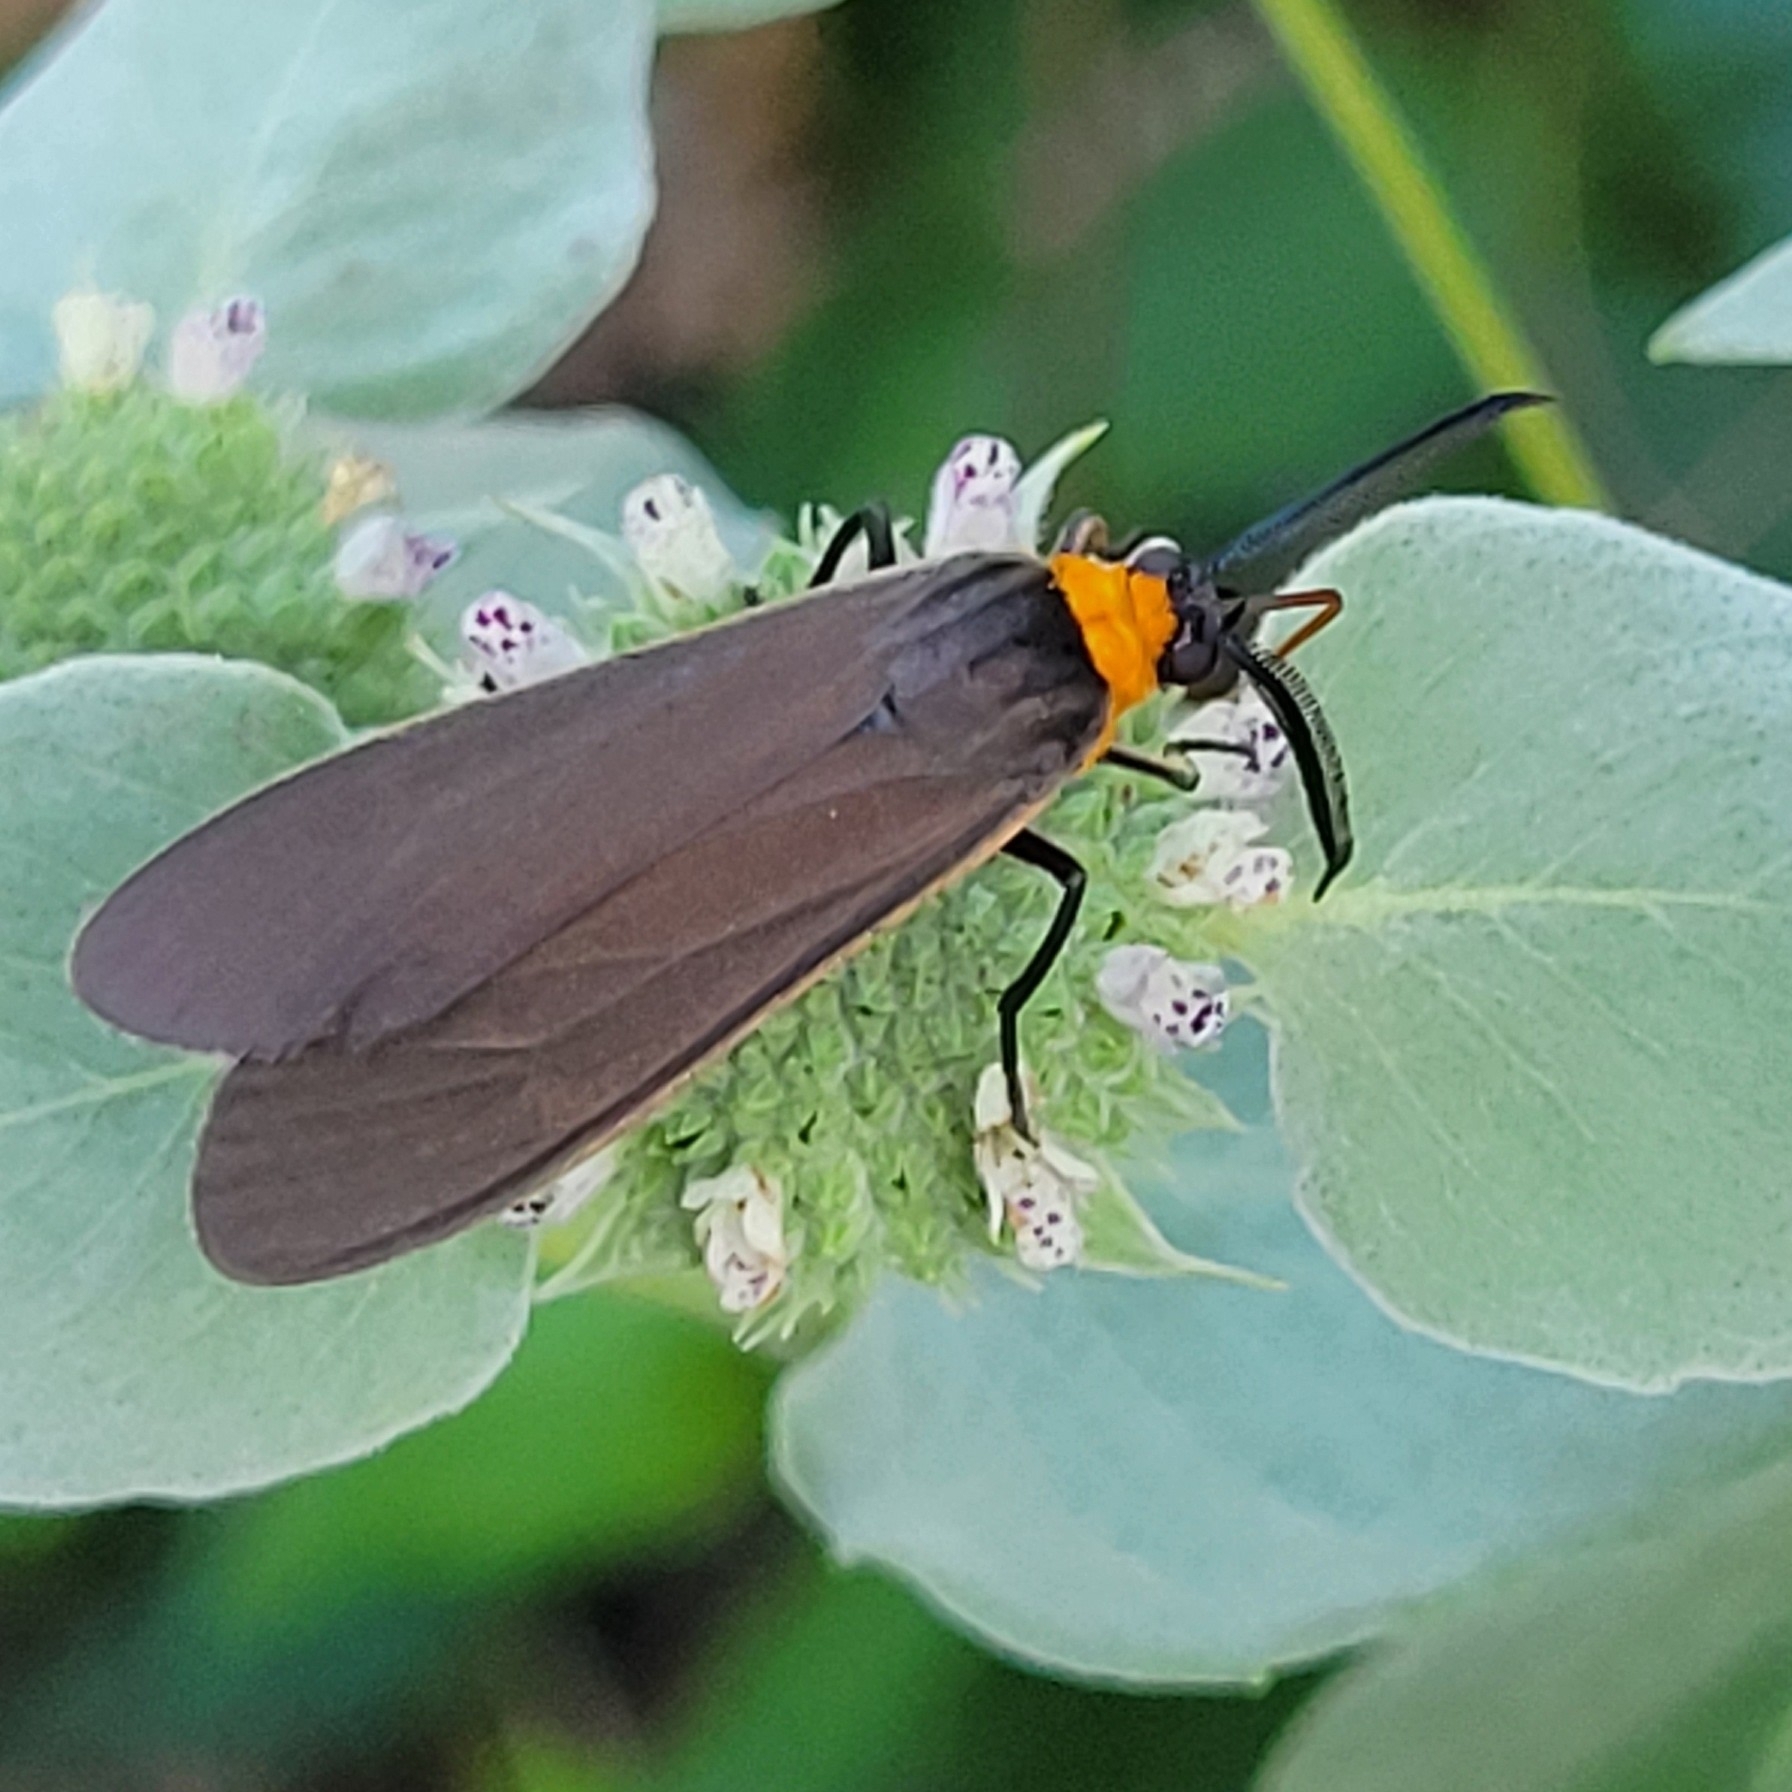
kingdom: Animalia
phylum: Arthropoda
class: Insecta
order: Lepidoptera
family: Erebidae
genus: Cisseps
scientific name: Cisseps fulvicollis
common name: Yellow-collared scape moth
